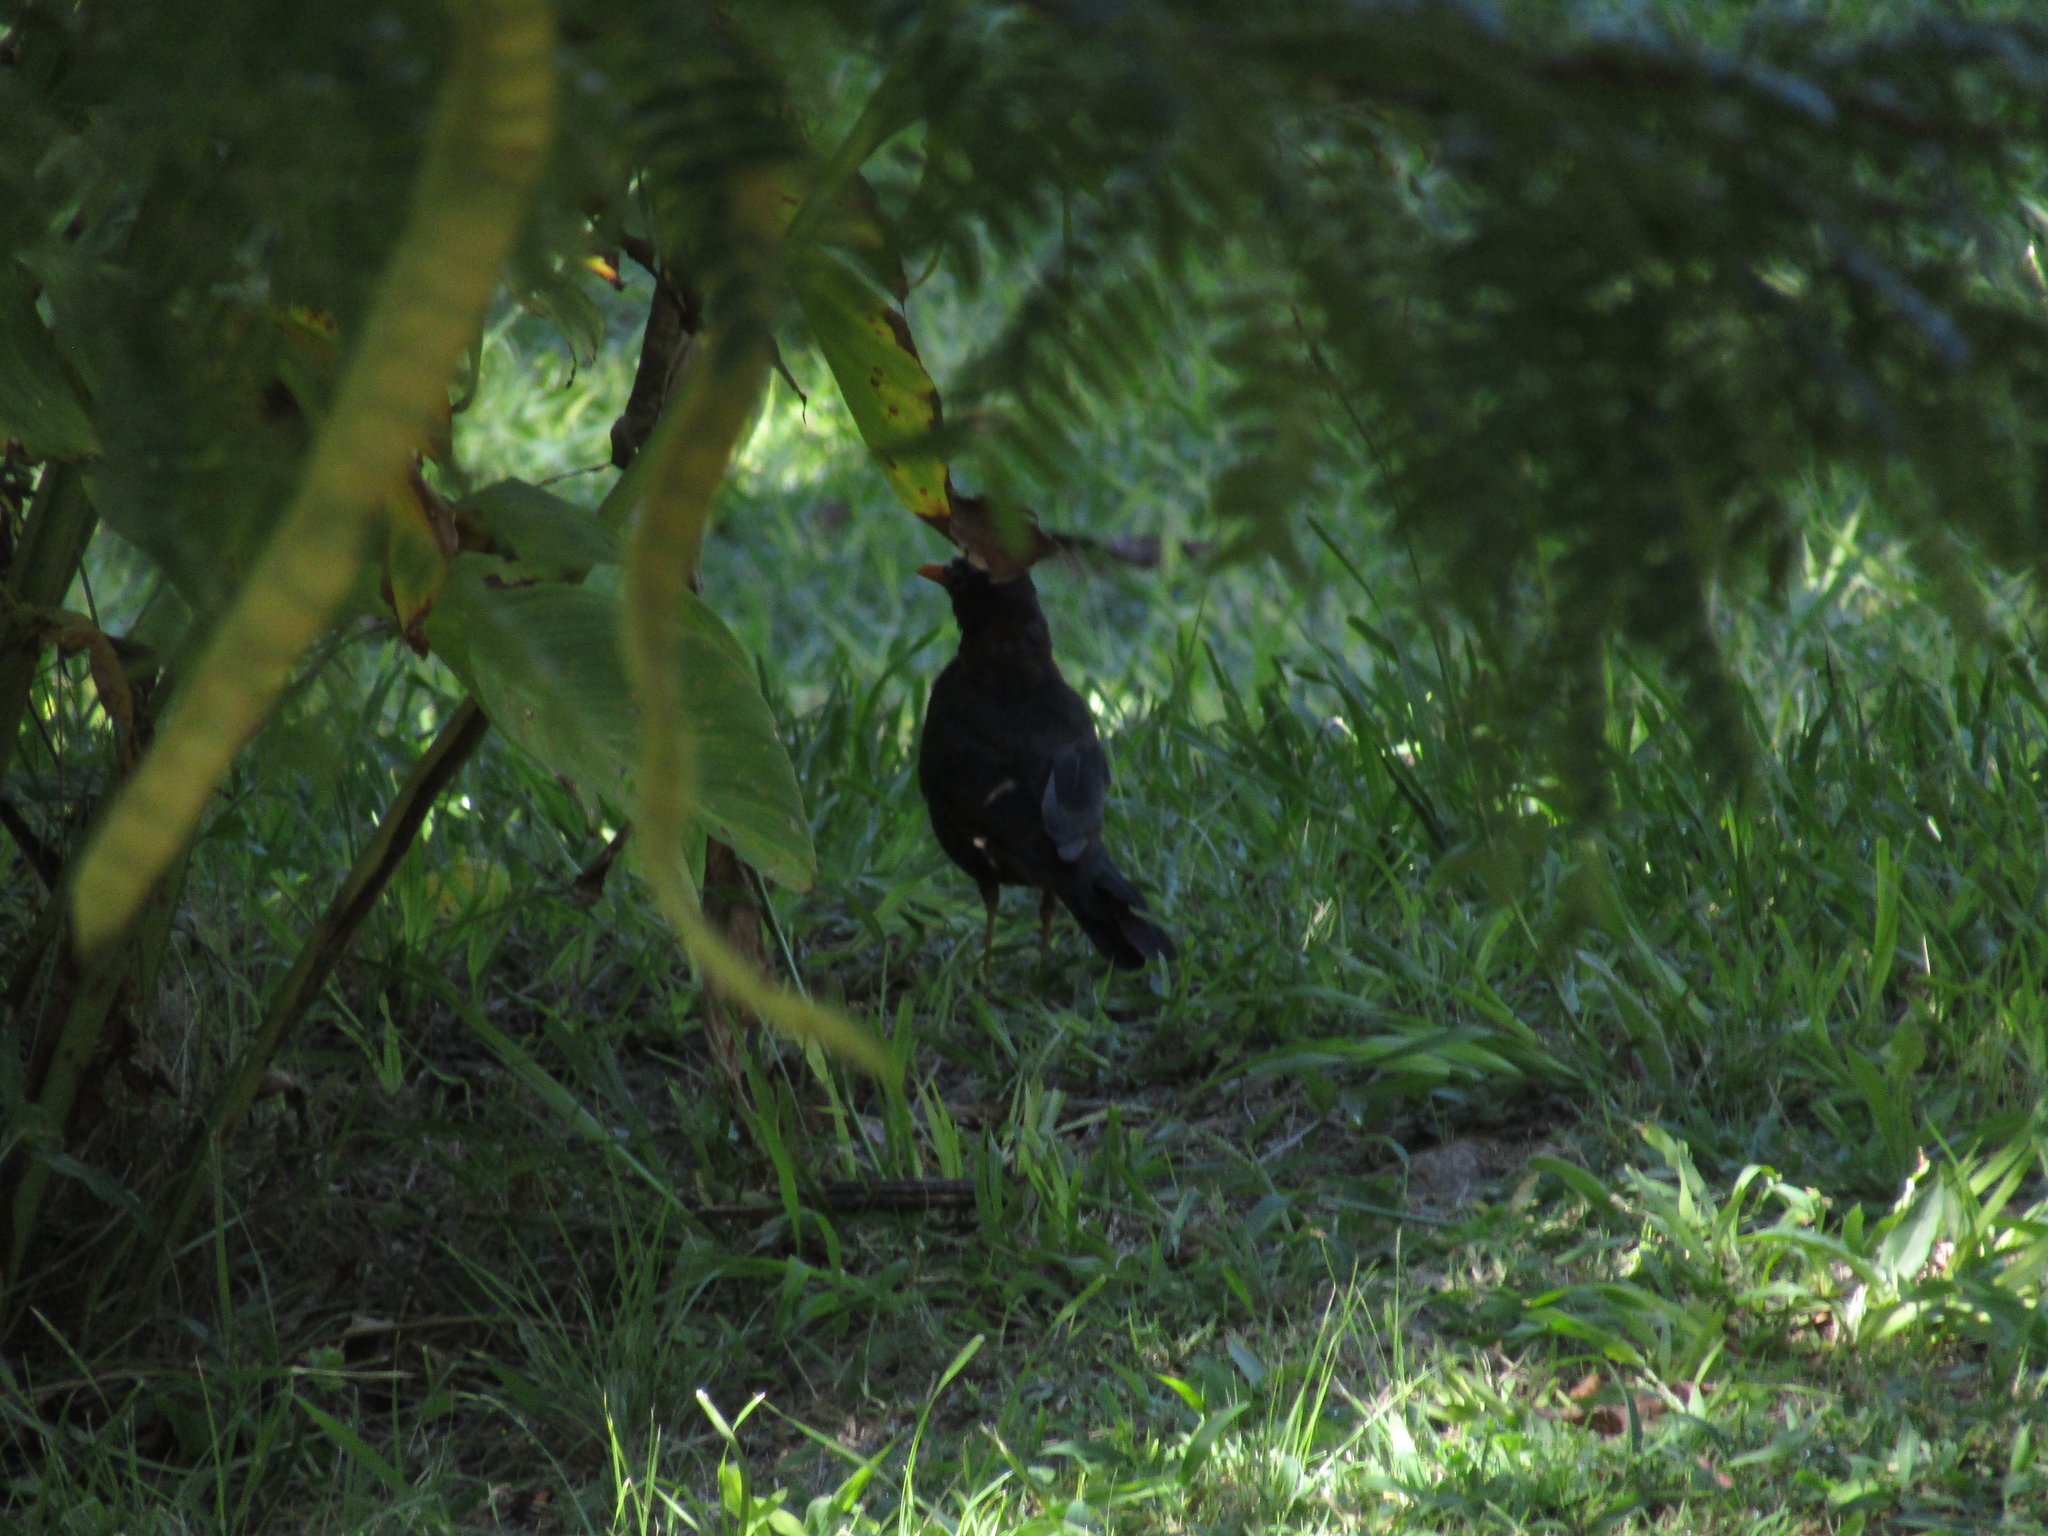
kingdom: Animalia
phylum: Chordata
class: Aves
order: Passeriformes
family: Turdidae
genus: Turdus
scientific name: Turdus chiguanco
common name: Chiguanco thrush
